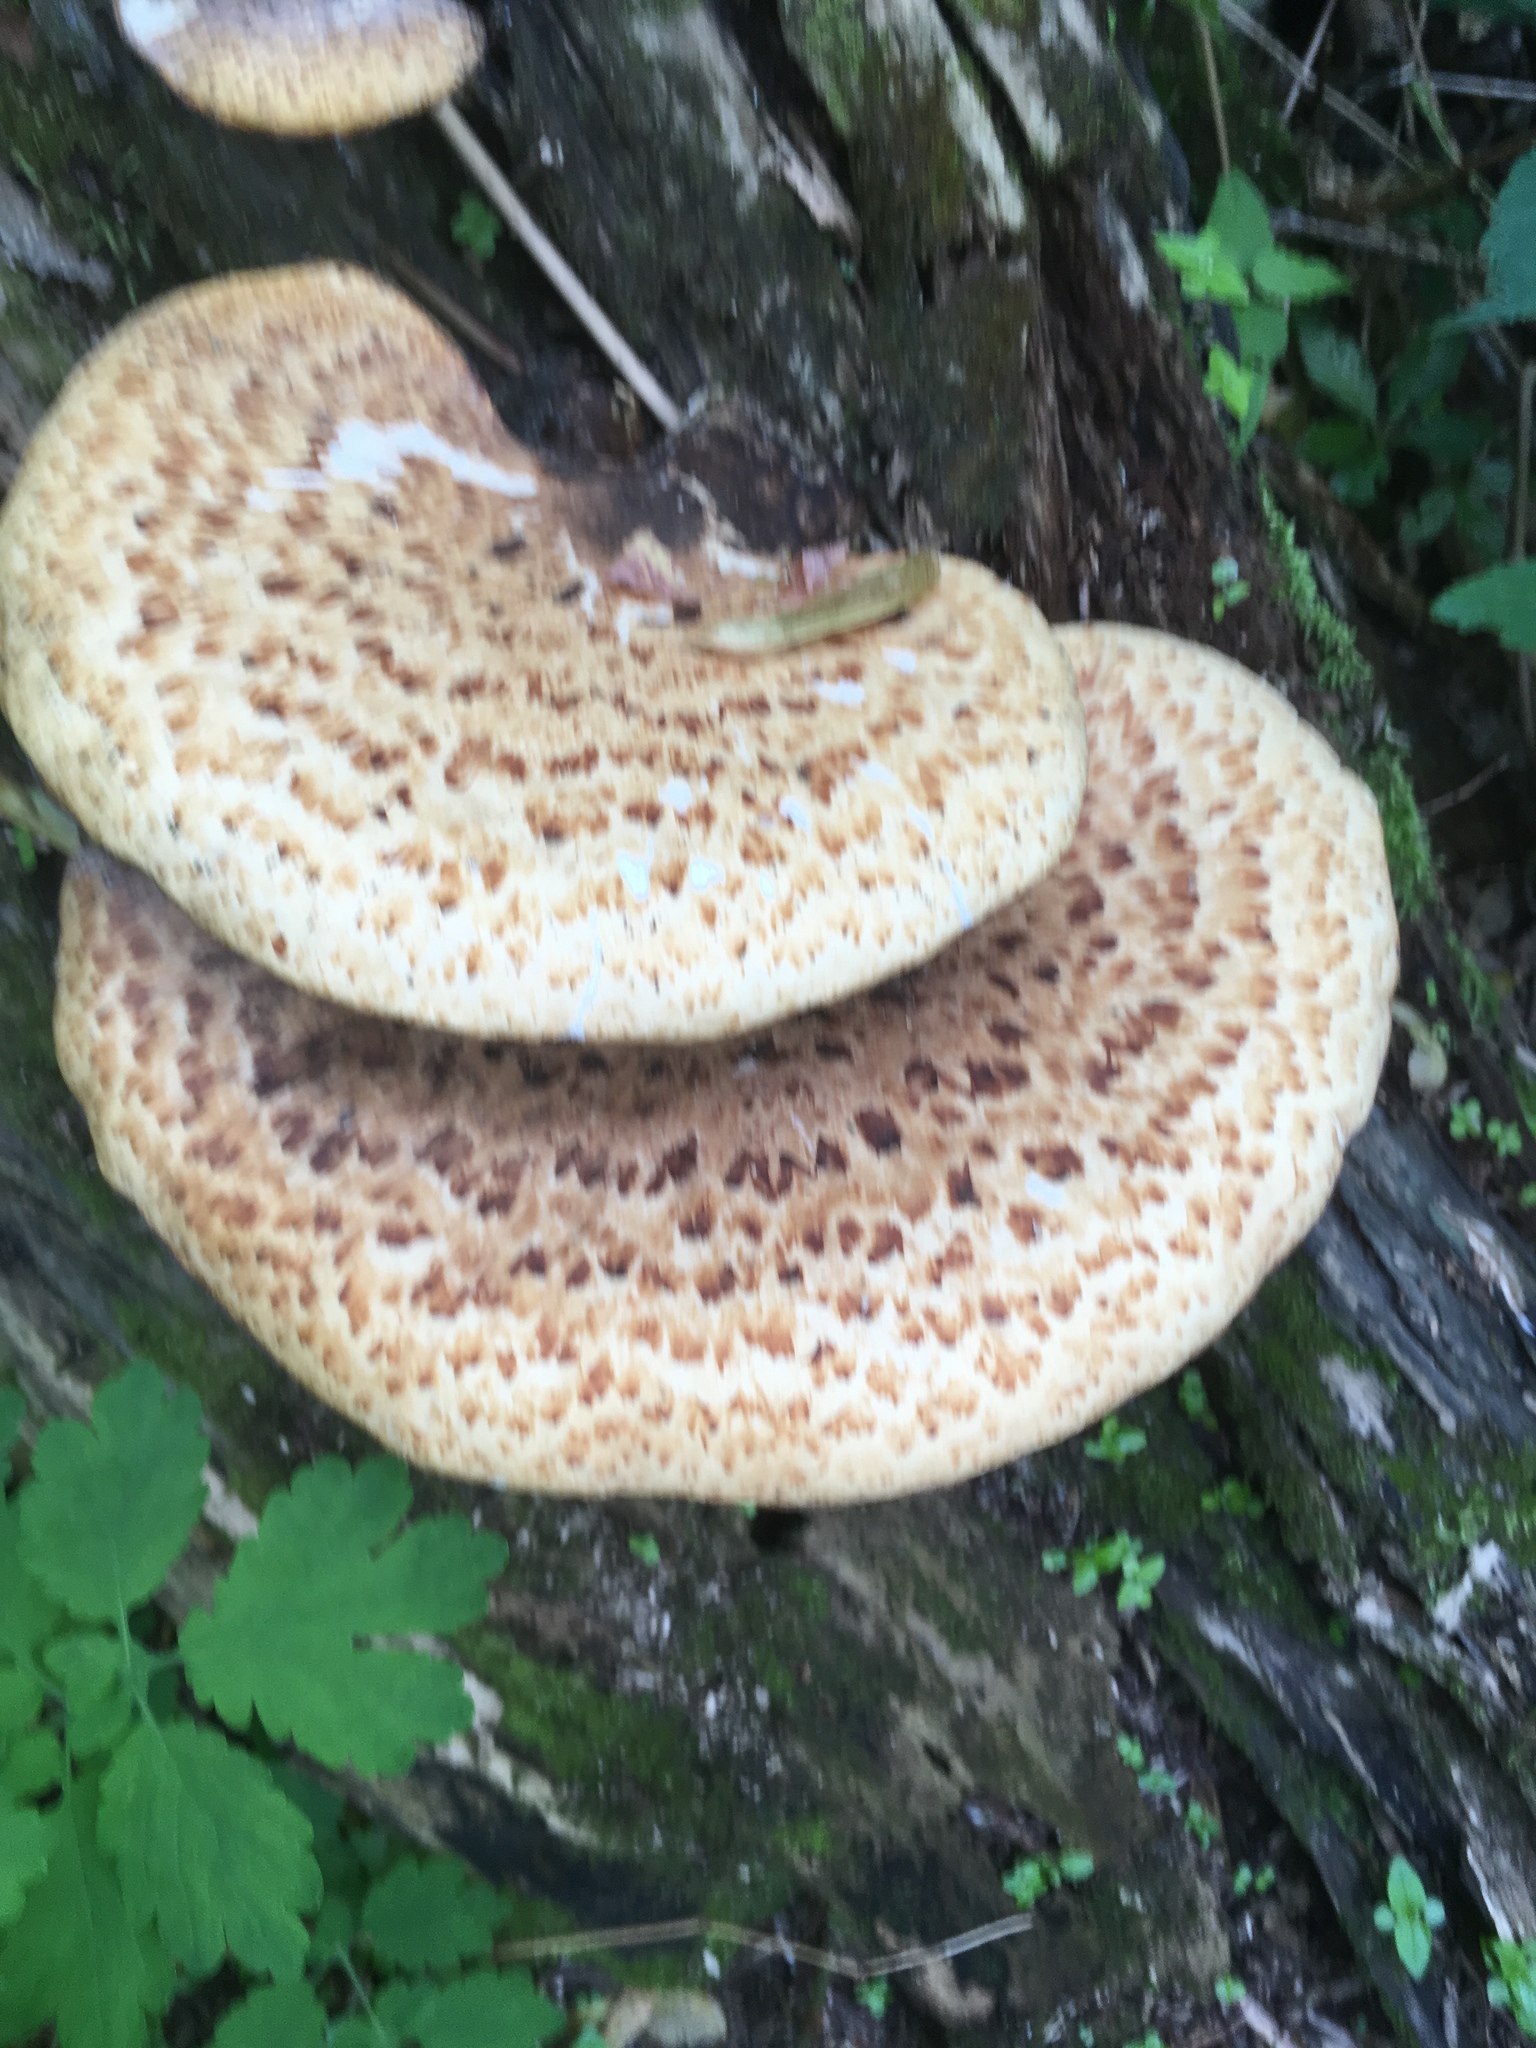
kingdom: Fungi
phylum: Basidiomycota
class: Agaricomycetes
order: Polyporales
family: Polyporaceae
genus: Cerioporus
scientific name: Cerioporus squamosus
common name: Dryad's saddle
